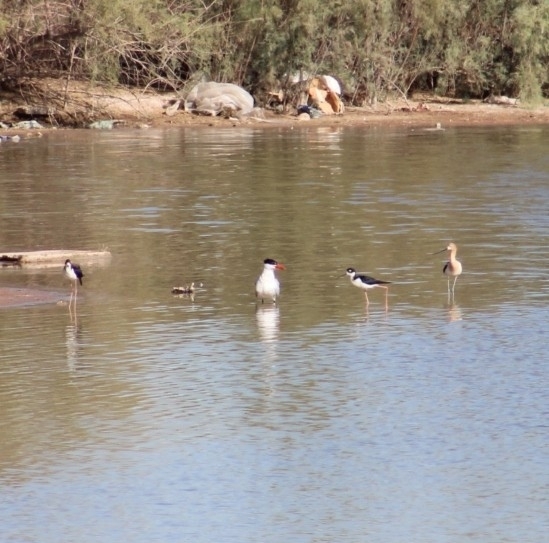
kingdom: Animalia
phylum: Chordata
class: Aves
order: Charadriiformes
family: Recurvirostridae
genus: Himantopus
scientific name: Himantopus mexicanus
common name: Black-necked stilt
